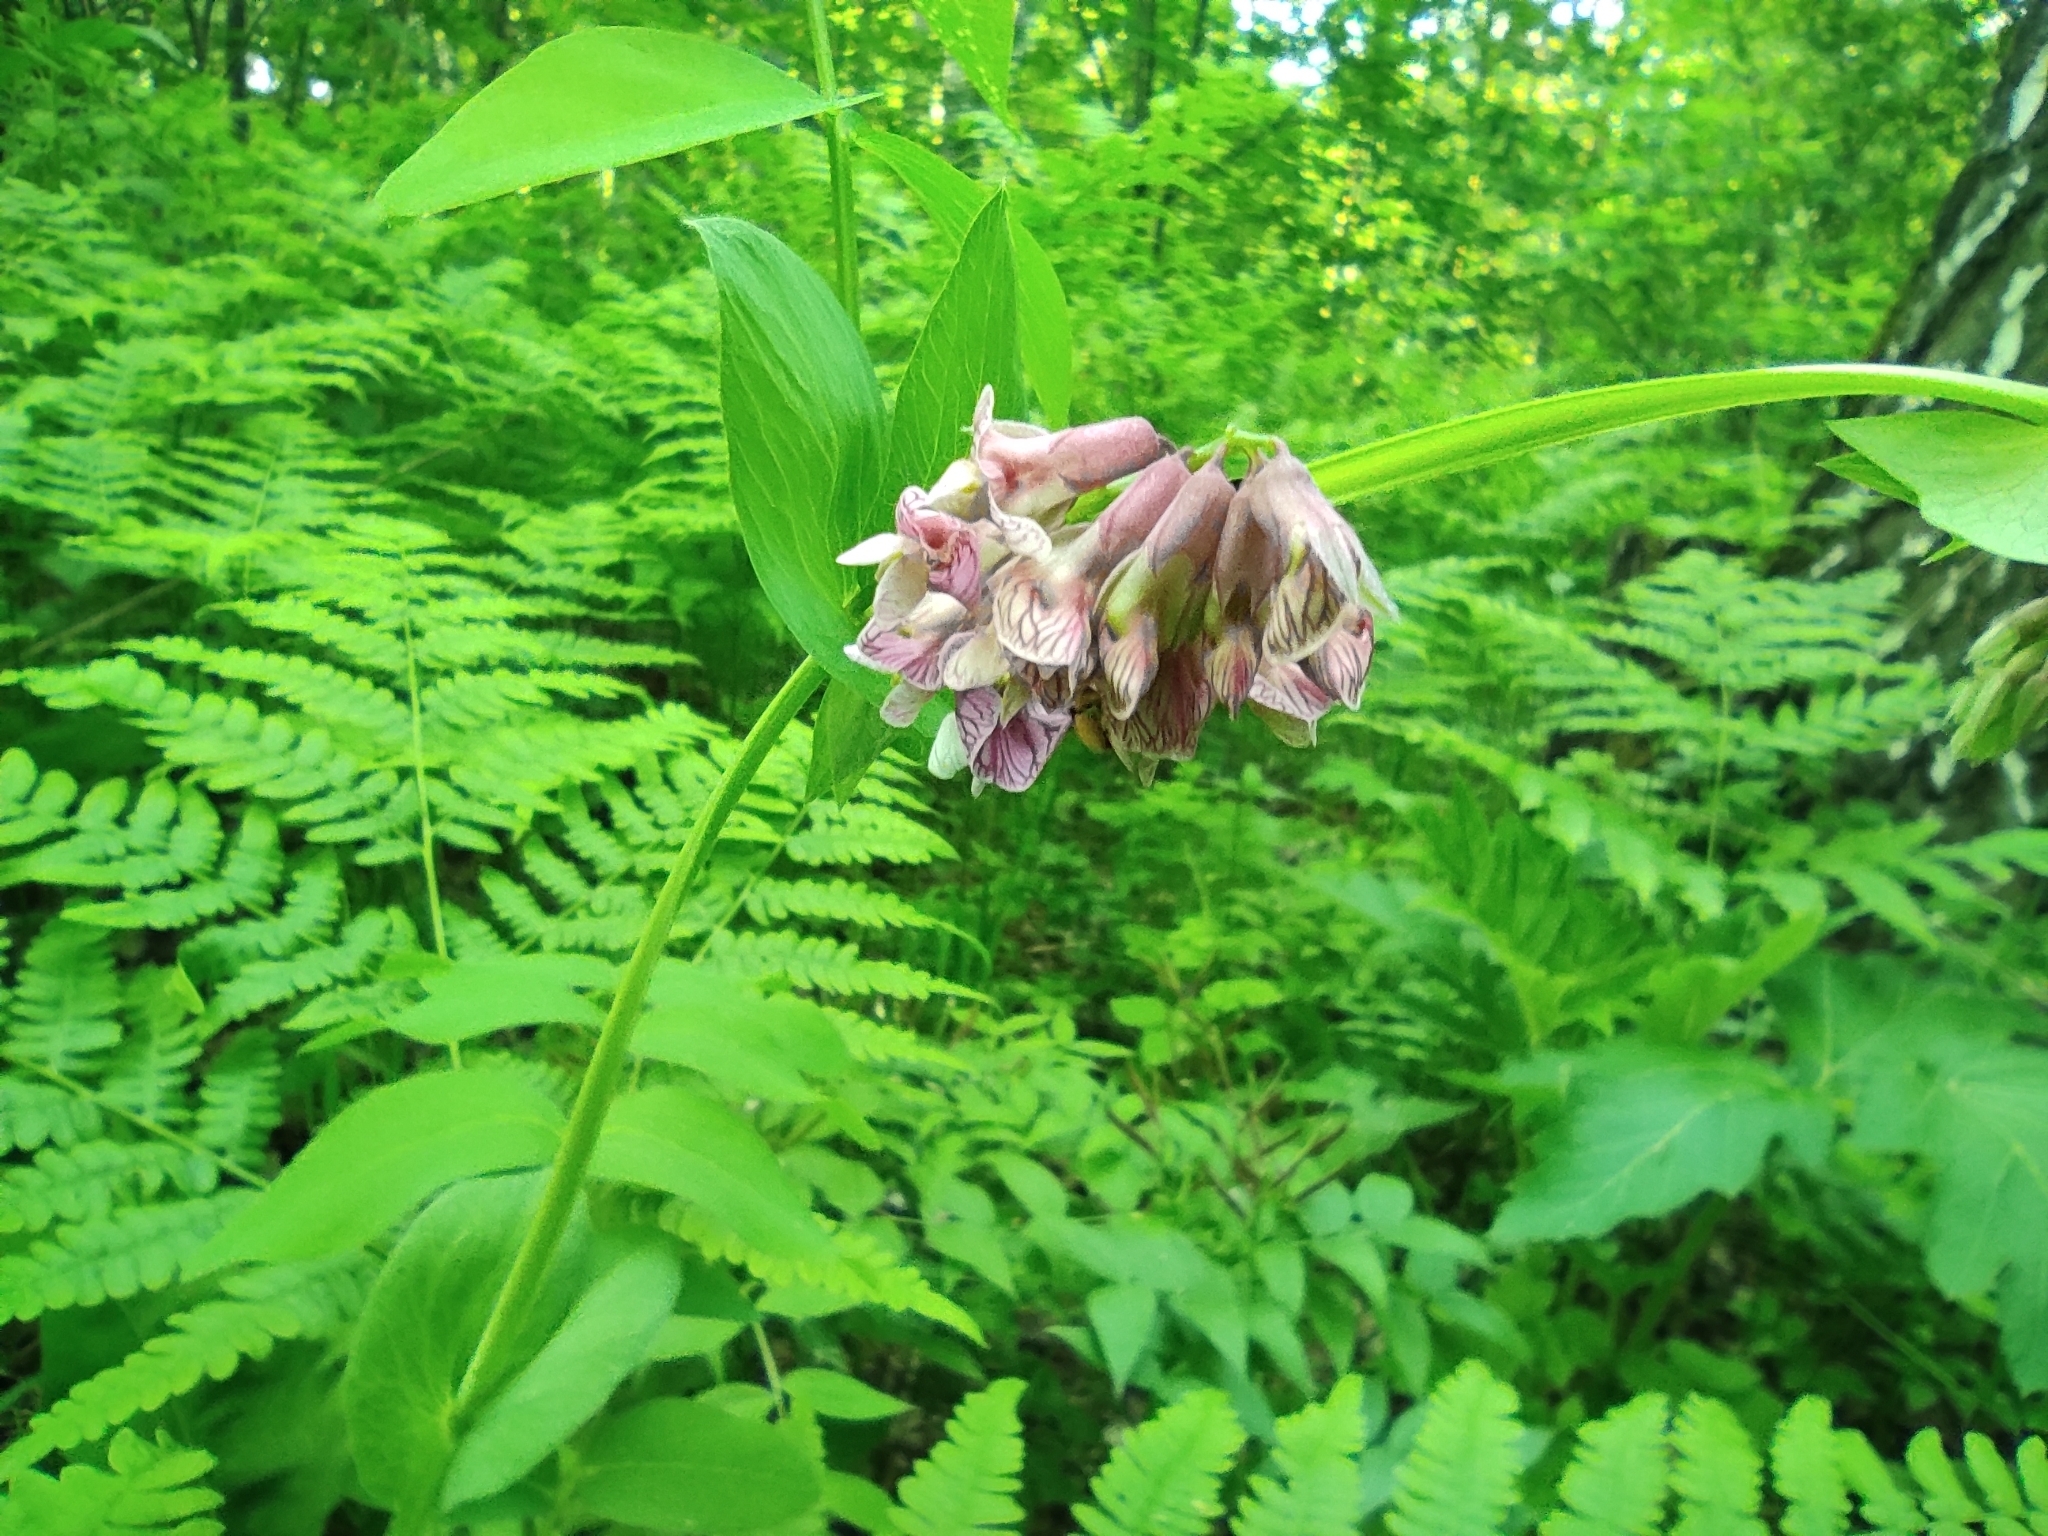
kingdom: Plantae
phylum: Tracheophyta
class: Magnoliopsida
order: Fabales
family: Fabaceae
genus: Lathyrus
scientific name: Lathyrus pisiformis
